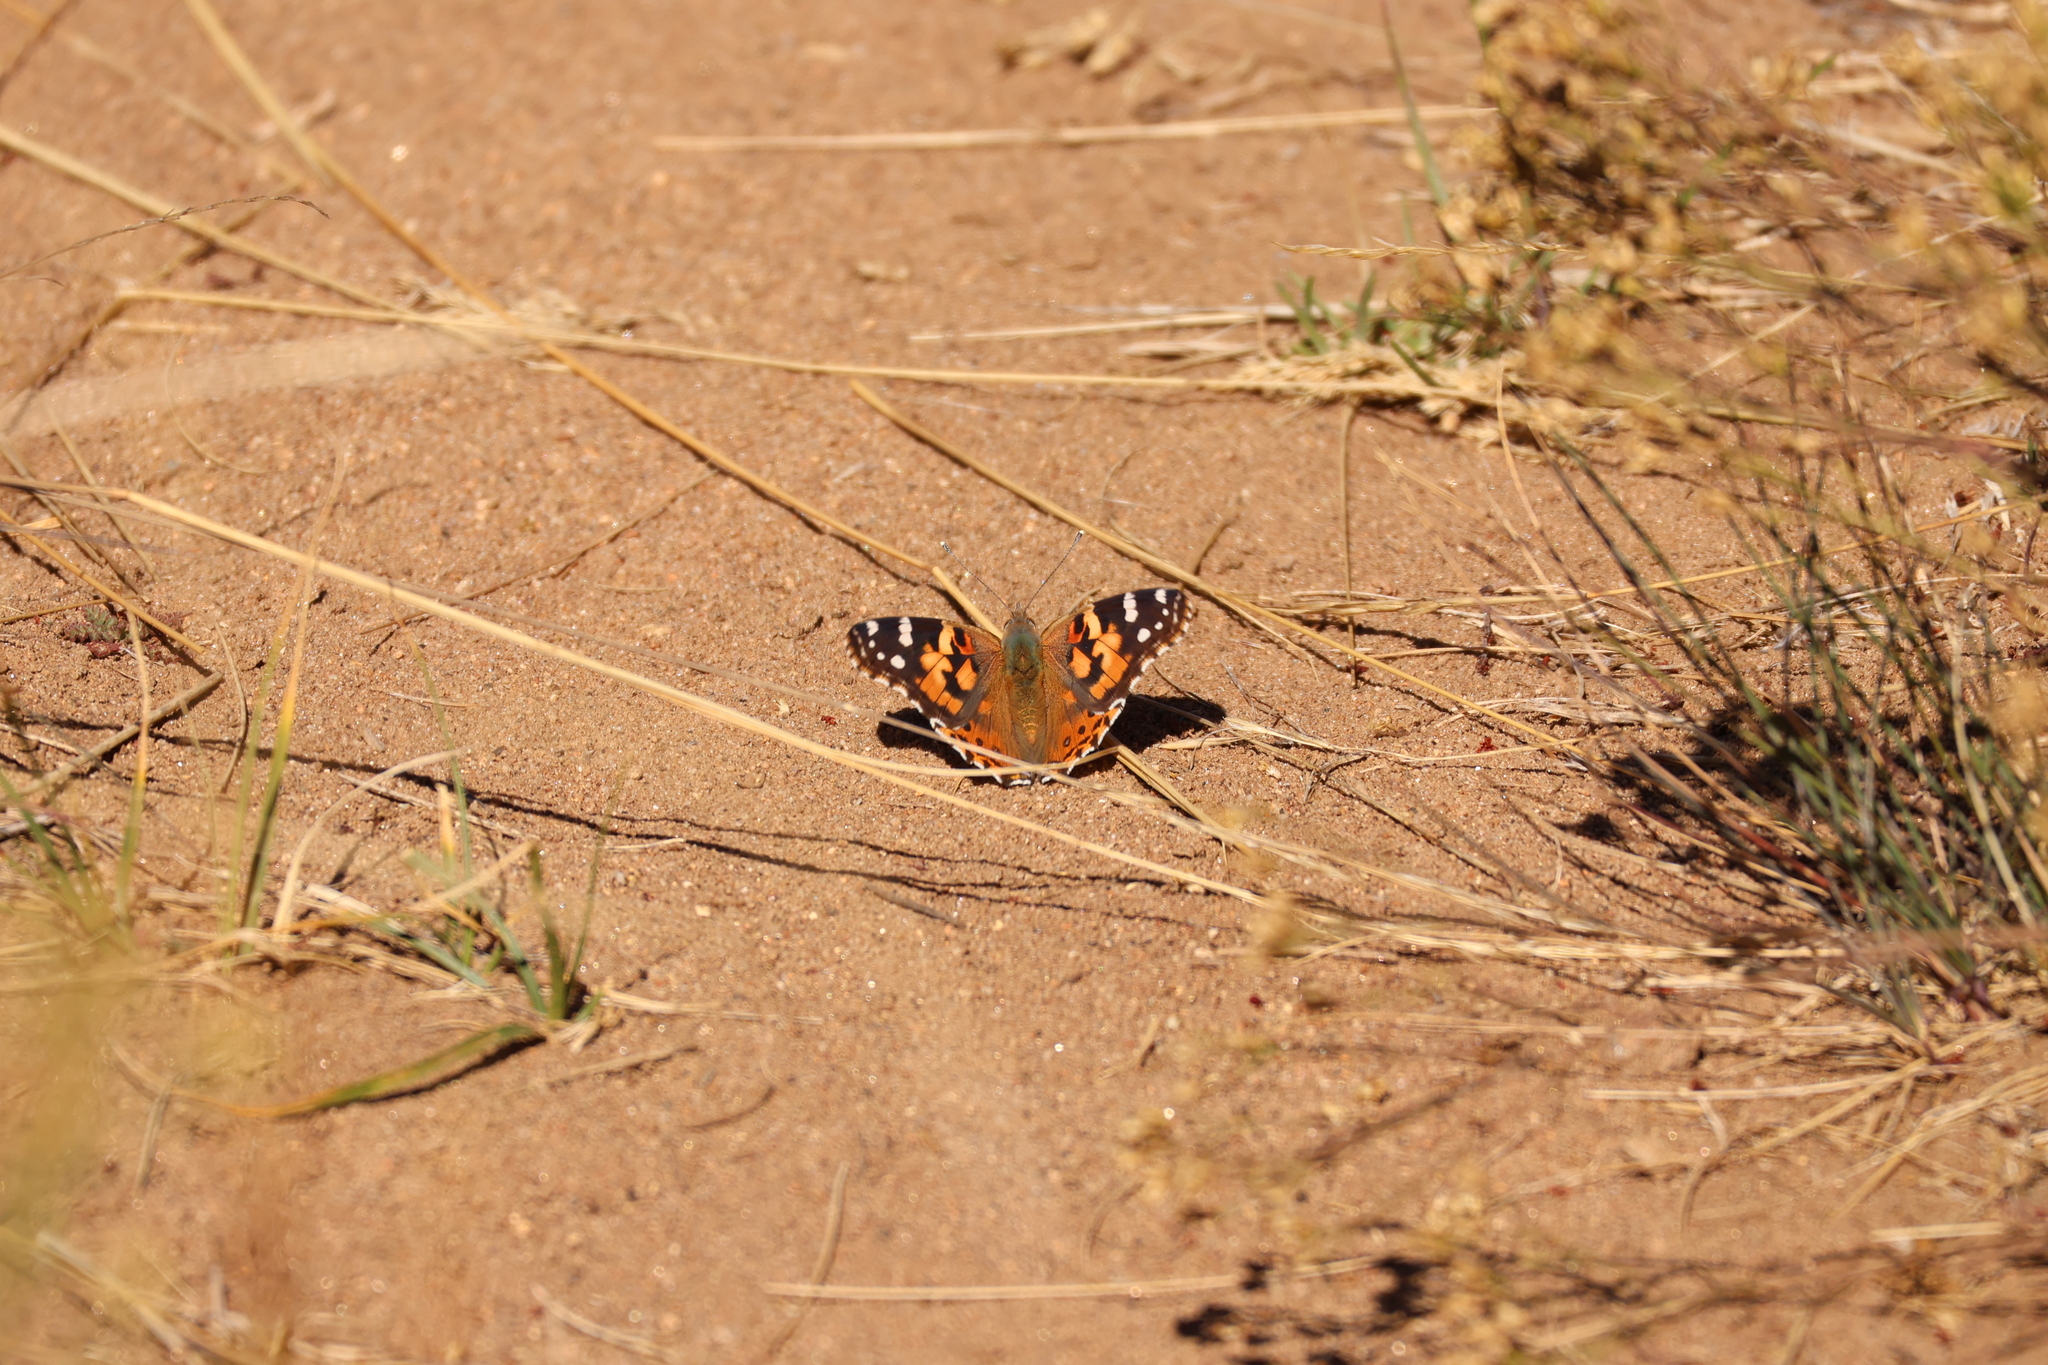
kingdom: Animalia
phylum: Arthropoda
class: Insecta
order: Lepidoptera
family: Nymphalidae
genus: Vanessa
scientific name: Vanessa cardui
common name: Painted lady
